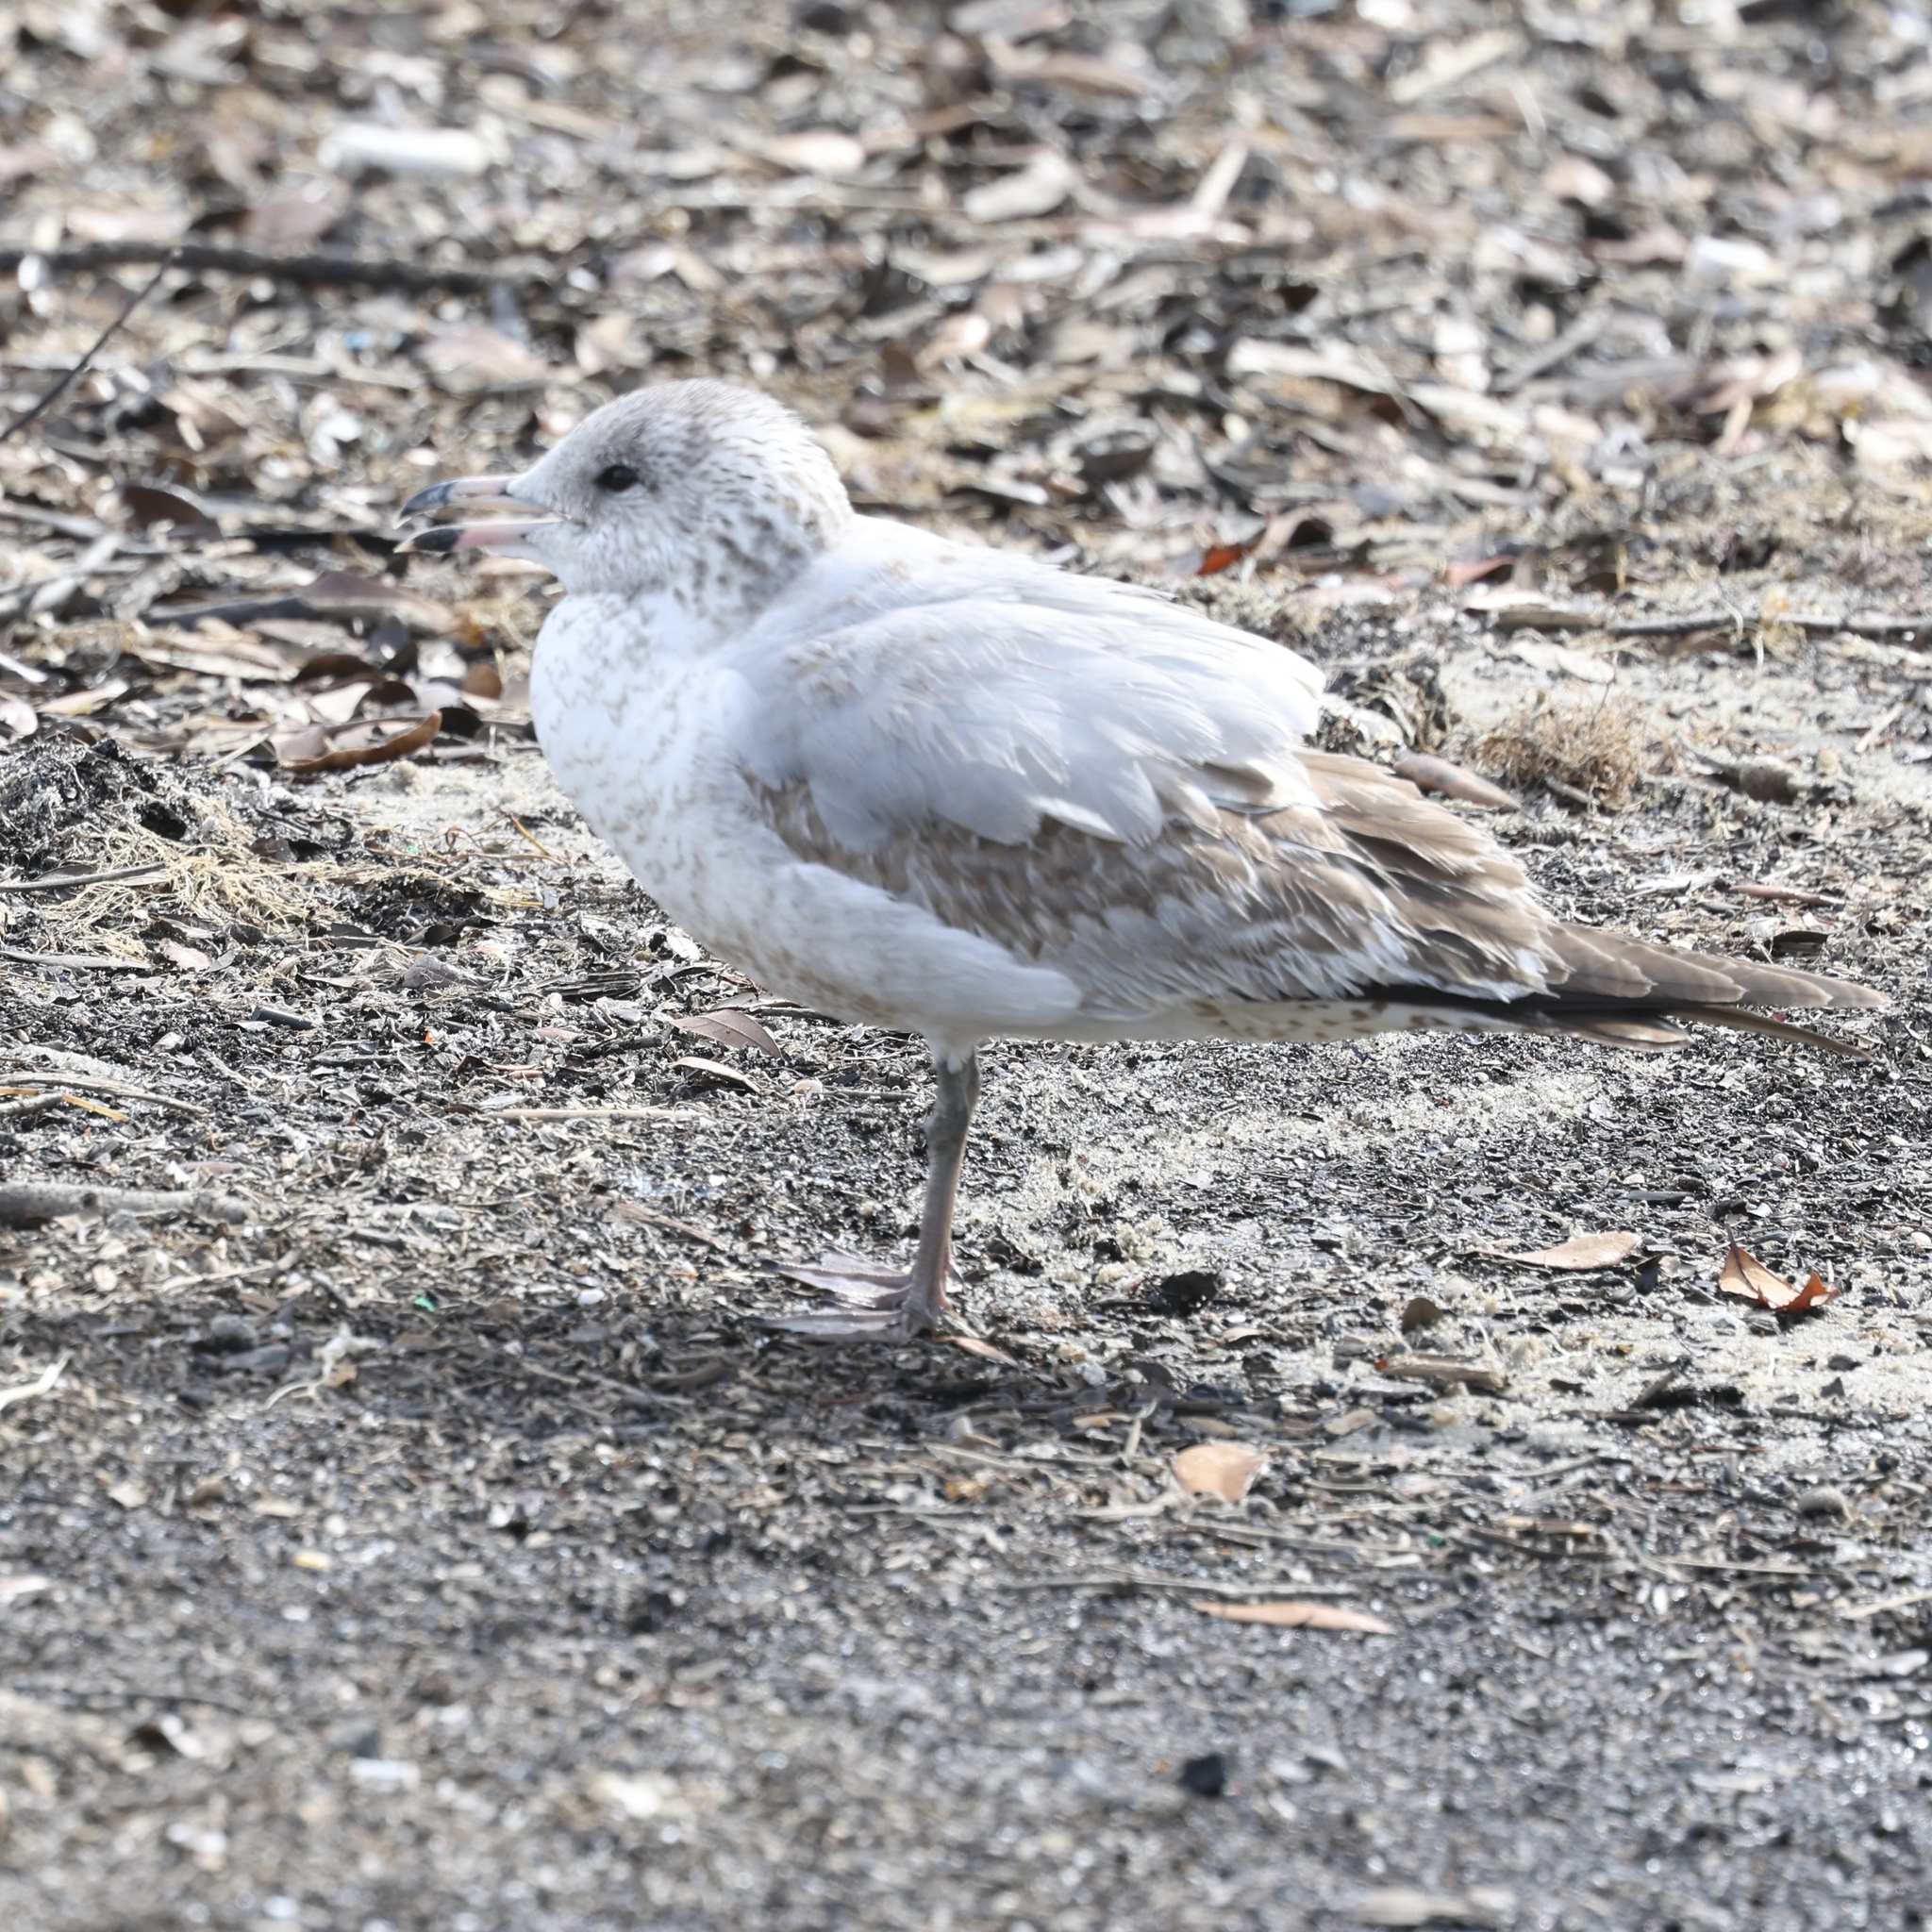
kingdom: Animalia
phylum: Chordata
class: Aves
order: Charadriiformes
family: Laridae
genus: Larus
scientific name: Larus delawarensis
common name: Ring-billed gull
